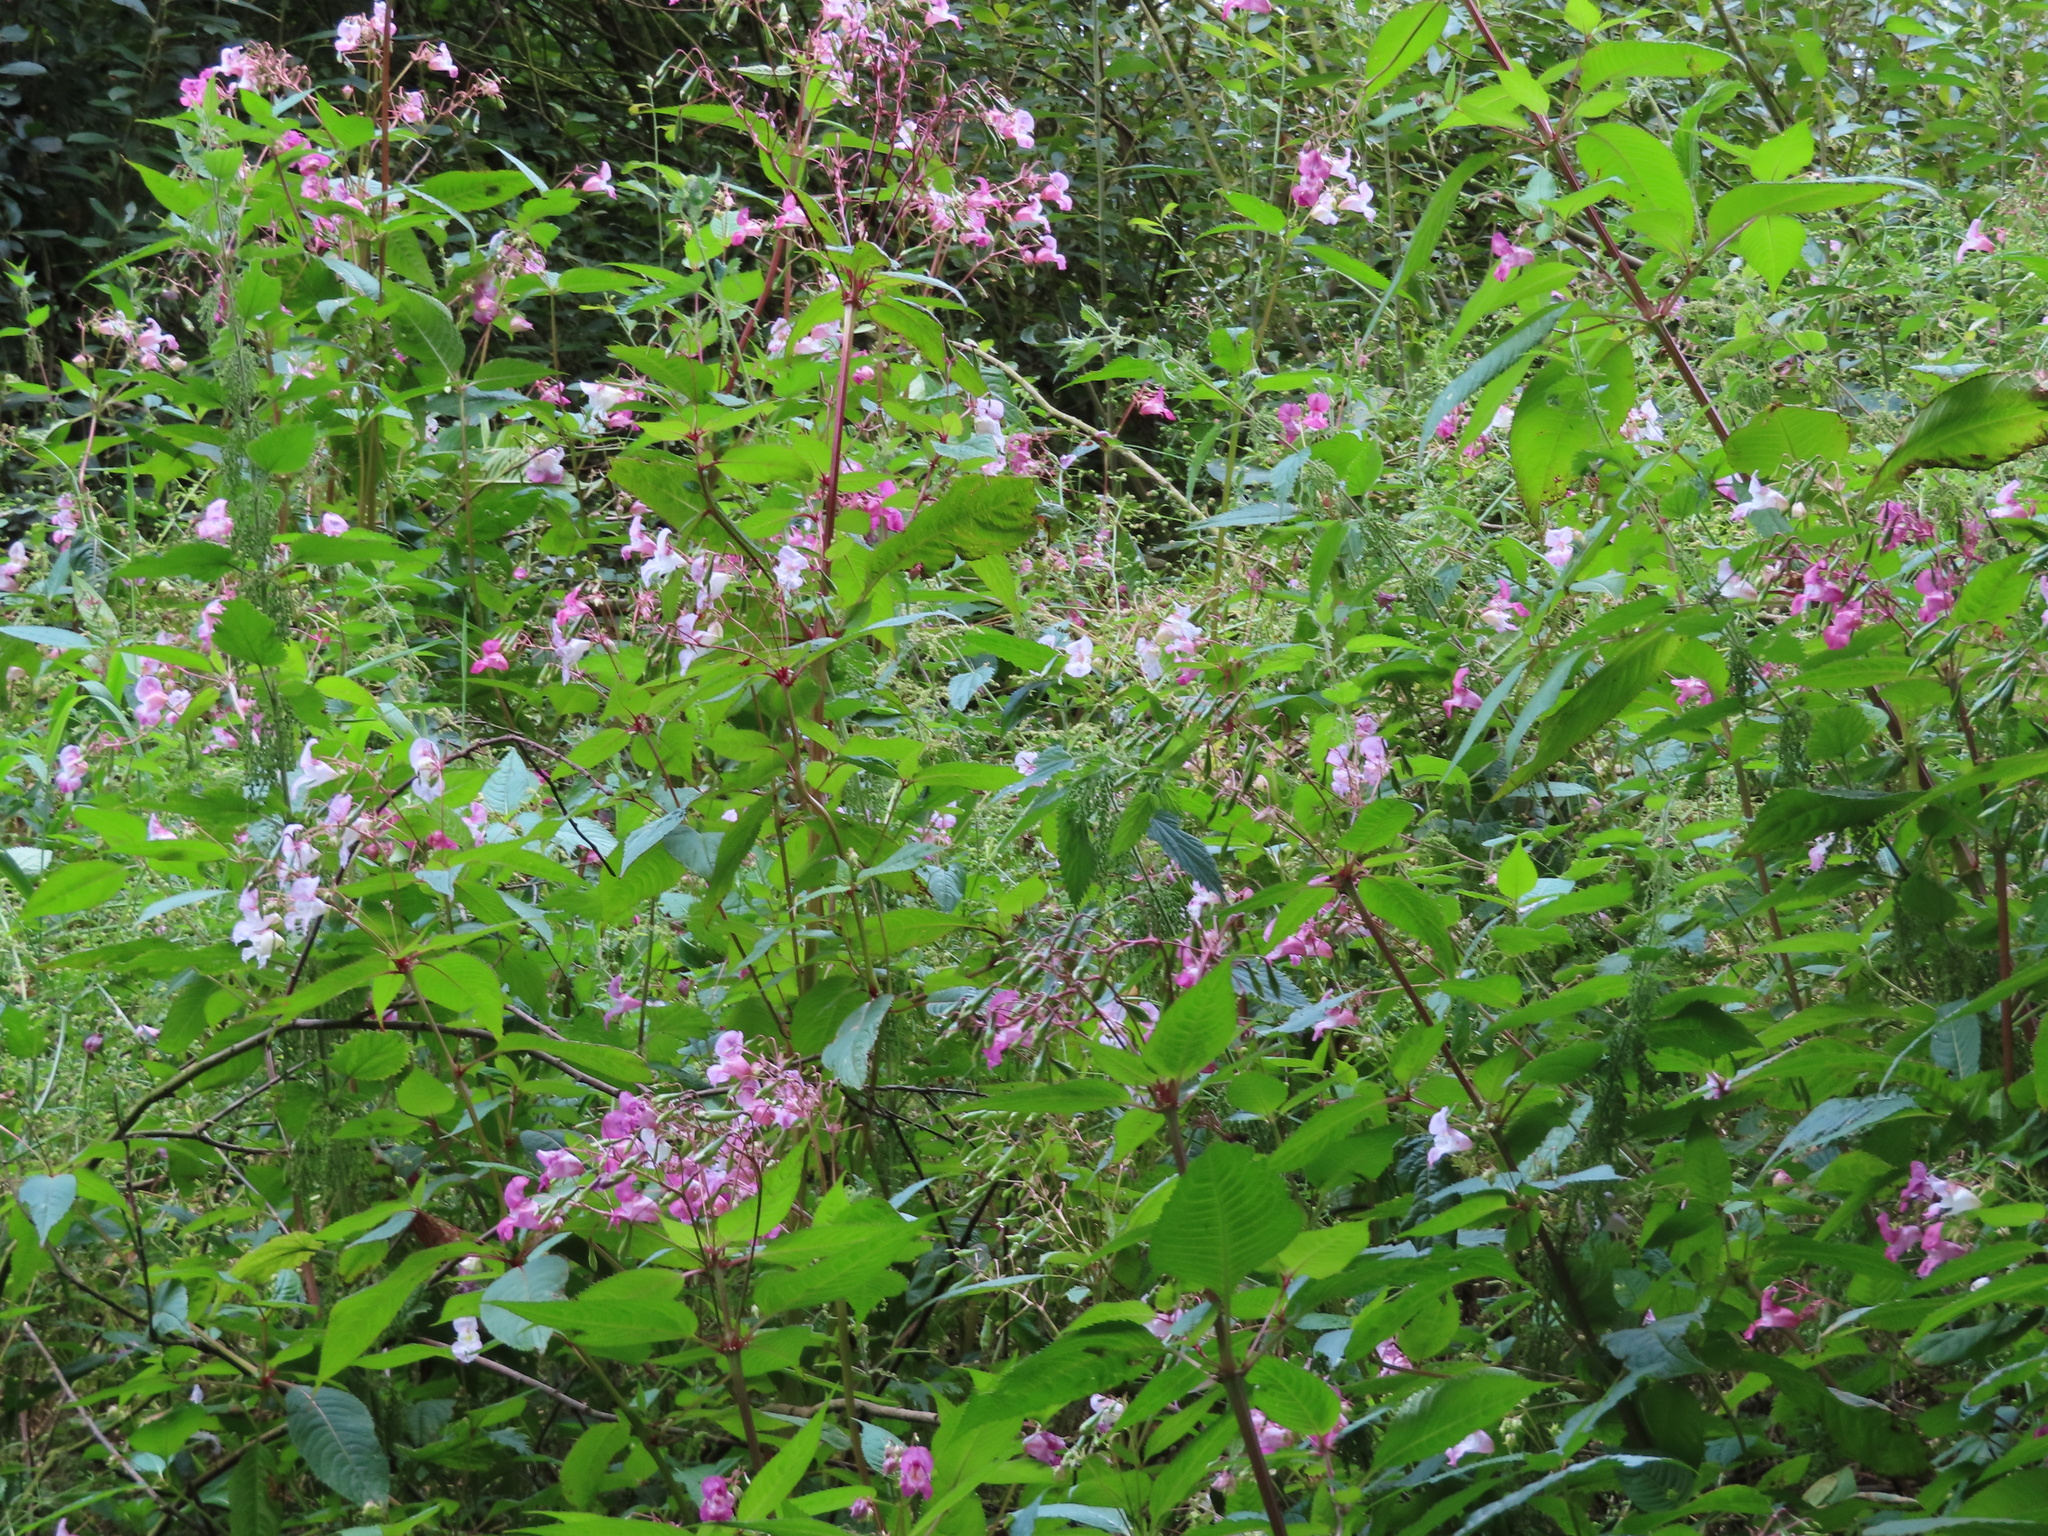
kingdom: Plantae
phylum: Tracheophyta
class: Magnoliopsida
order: Ericales
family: Balsaminaceae
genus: Impatiens
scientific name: Impatiens glandulifera
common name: Himalayan balsam
